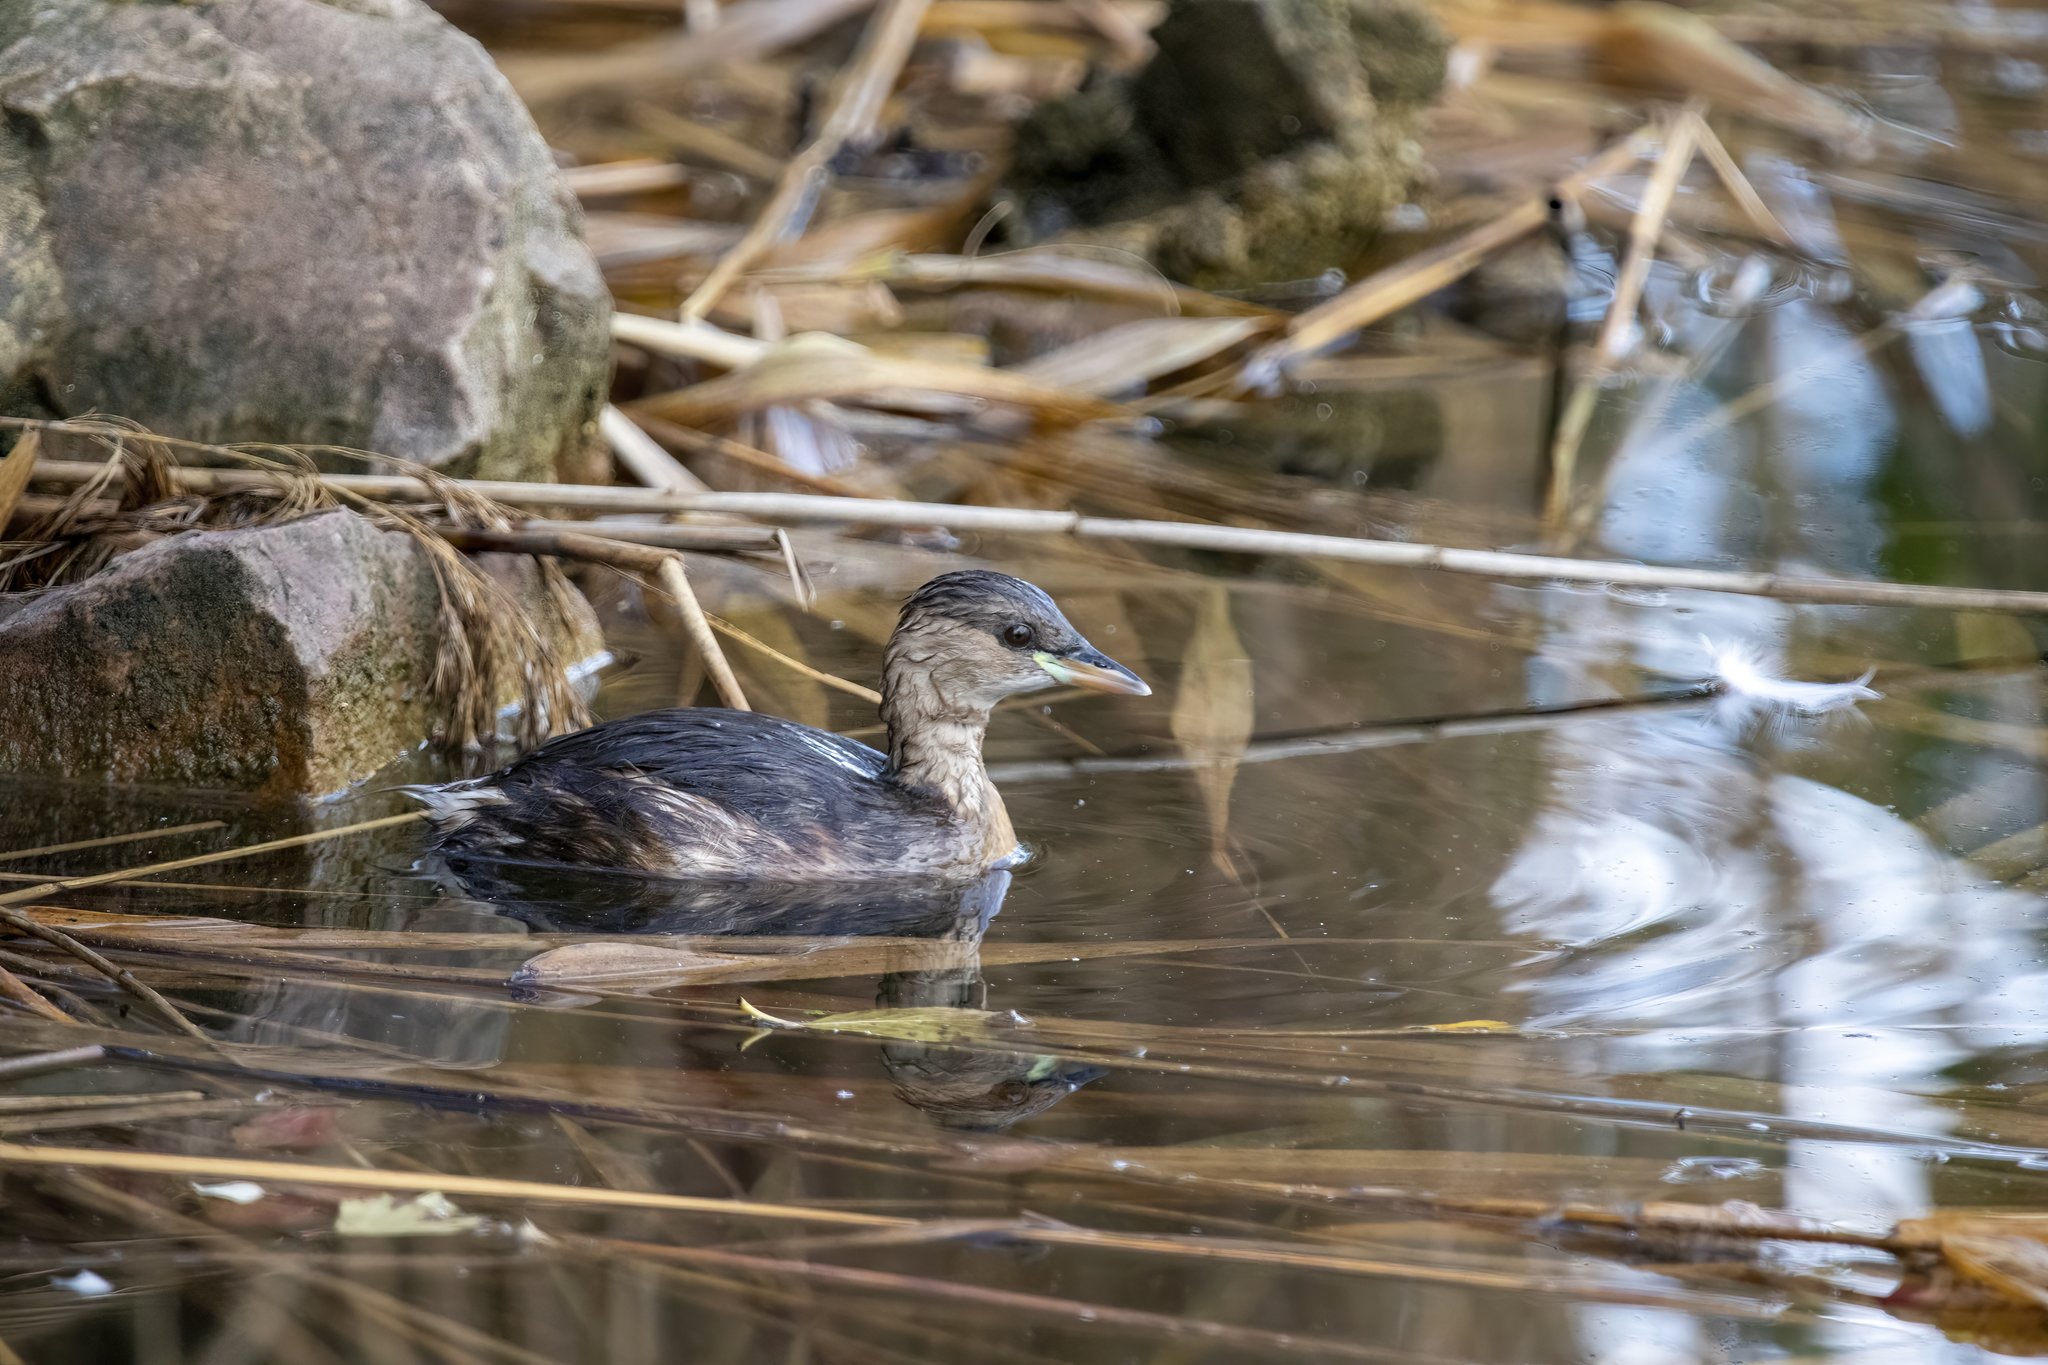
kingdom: Animalia
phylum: Chordata
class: Aves
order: Podicipediformes
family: Podicipedidae
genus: Tachybaptus
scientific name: Tachybaptus ruficollis
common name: Little grebe
